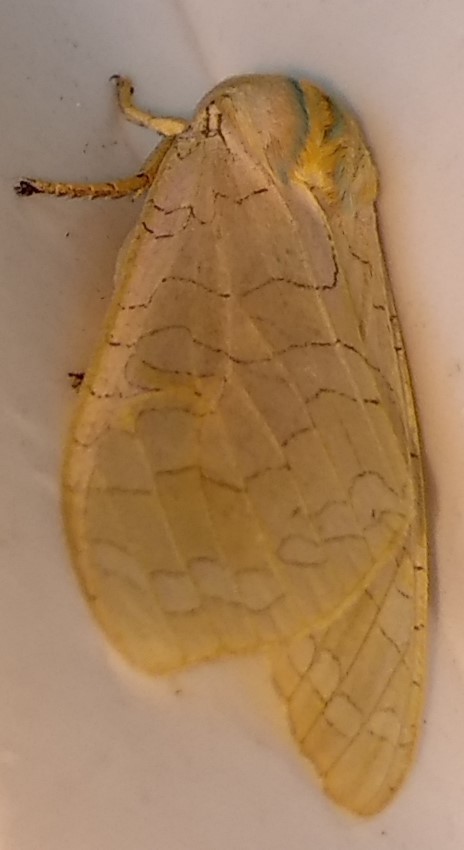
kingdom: Animalia
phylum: Arthropoda
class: Insecta
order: Lepidoptera
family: Erebidae
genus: Halysidota
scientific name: Halysidota tessellaris
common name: Banded tussock moth
